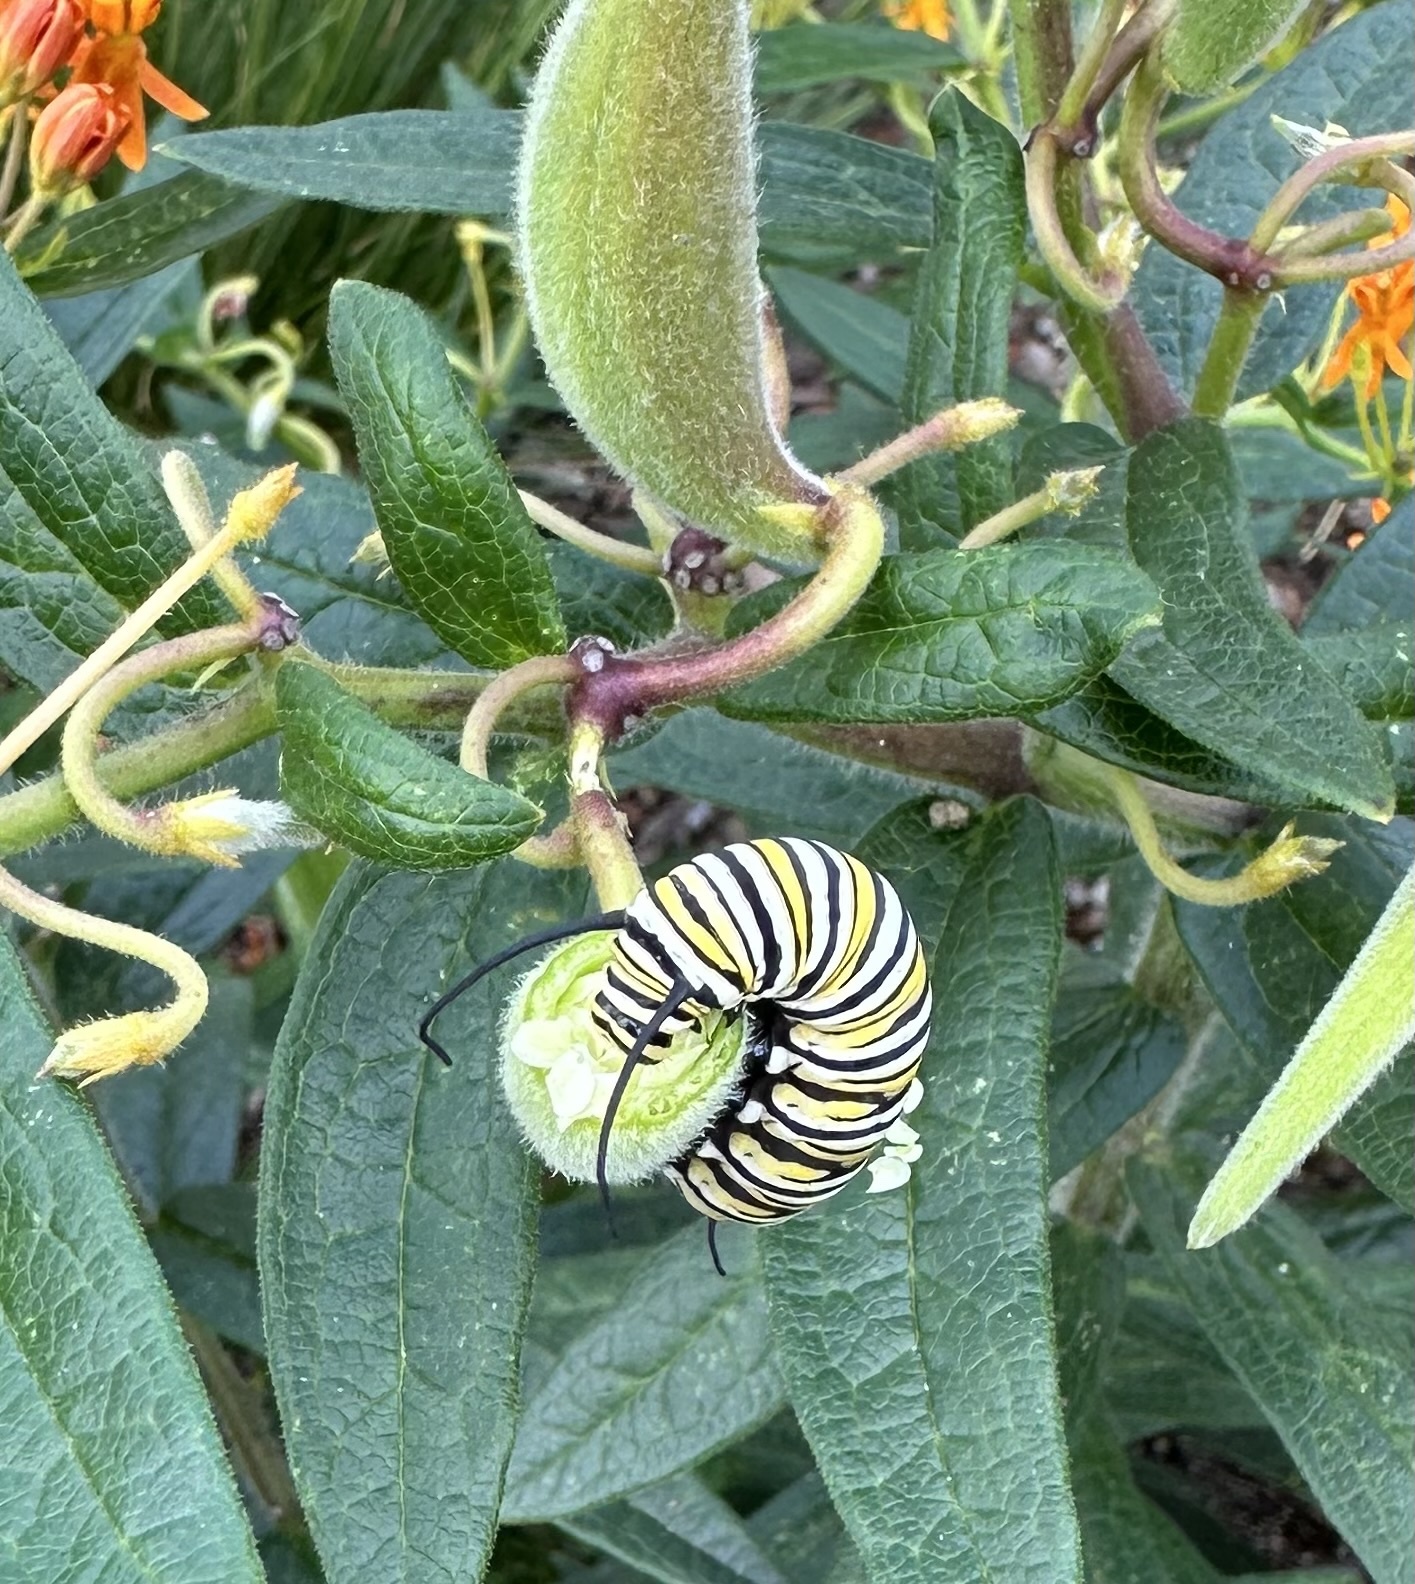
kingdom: Animalia
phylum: Arthropoda
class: Insecta
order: Lepidoptera
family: Nymphalidae
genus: Danaus
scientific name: Danaus plexippus
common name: Monarch
